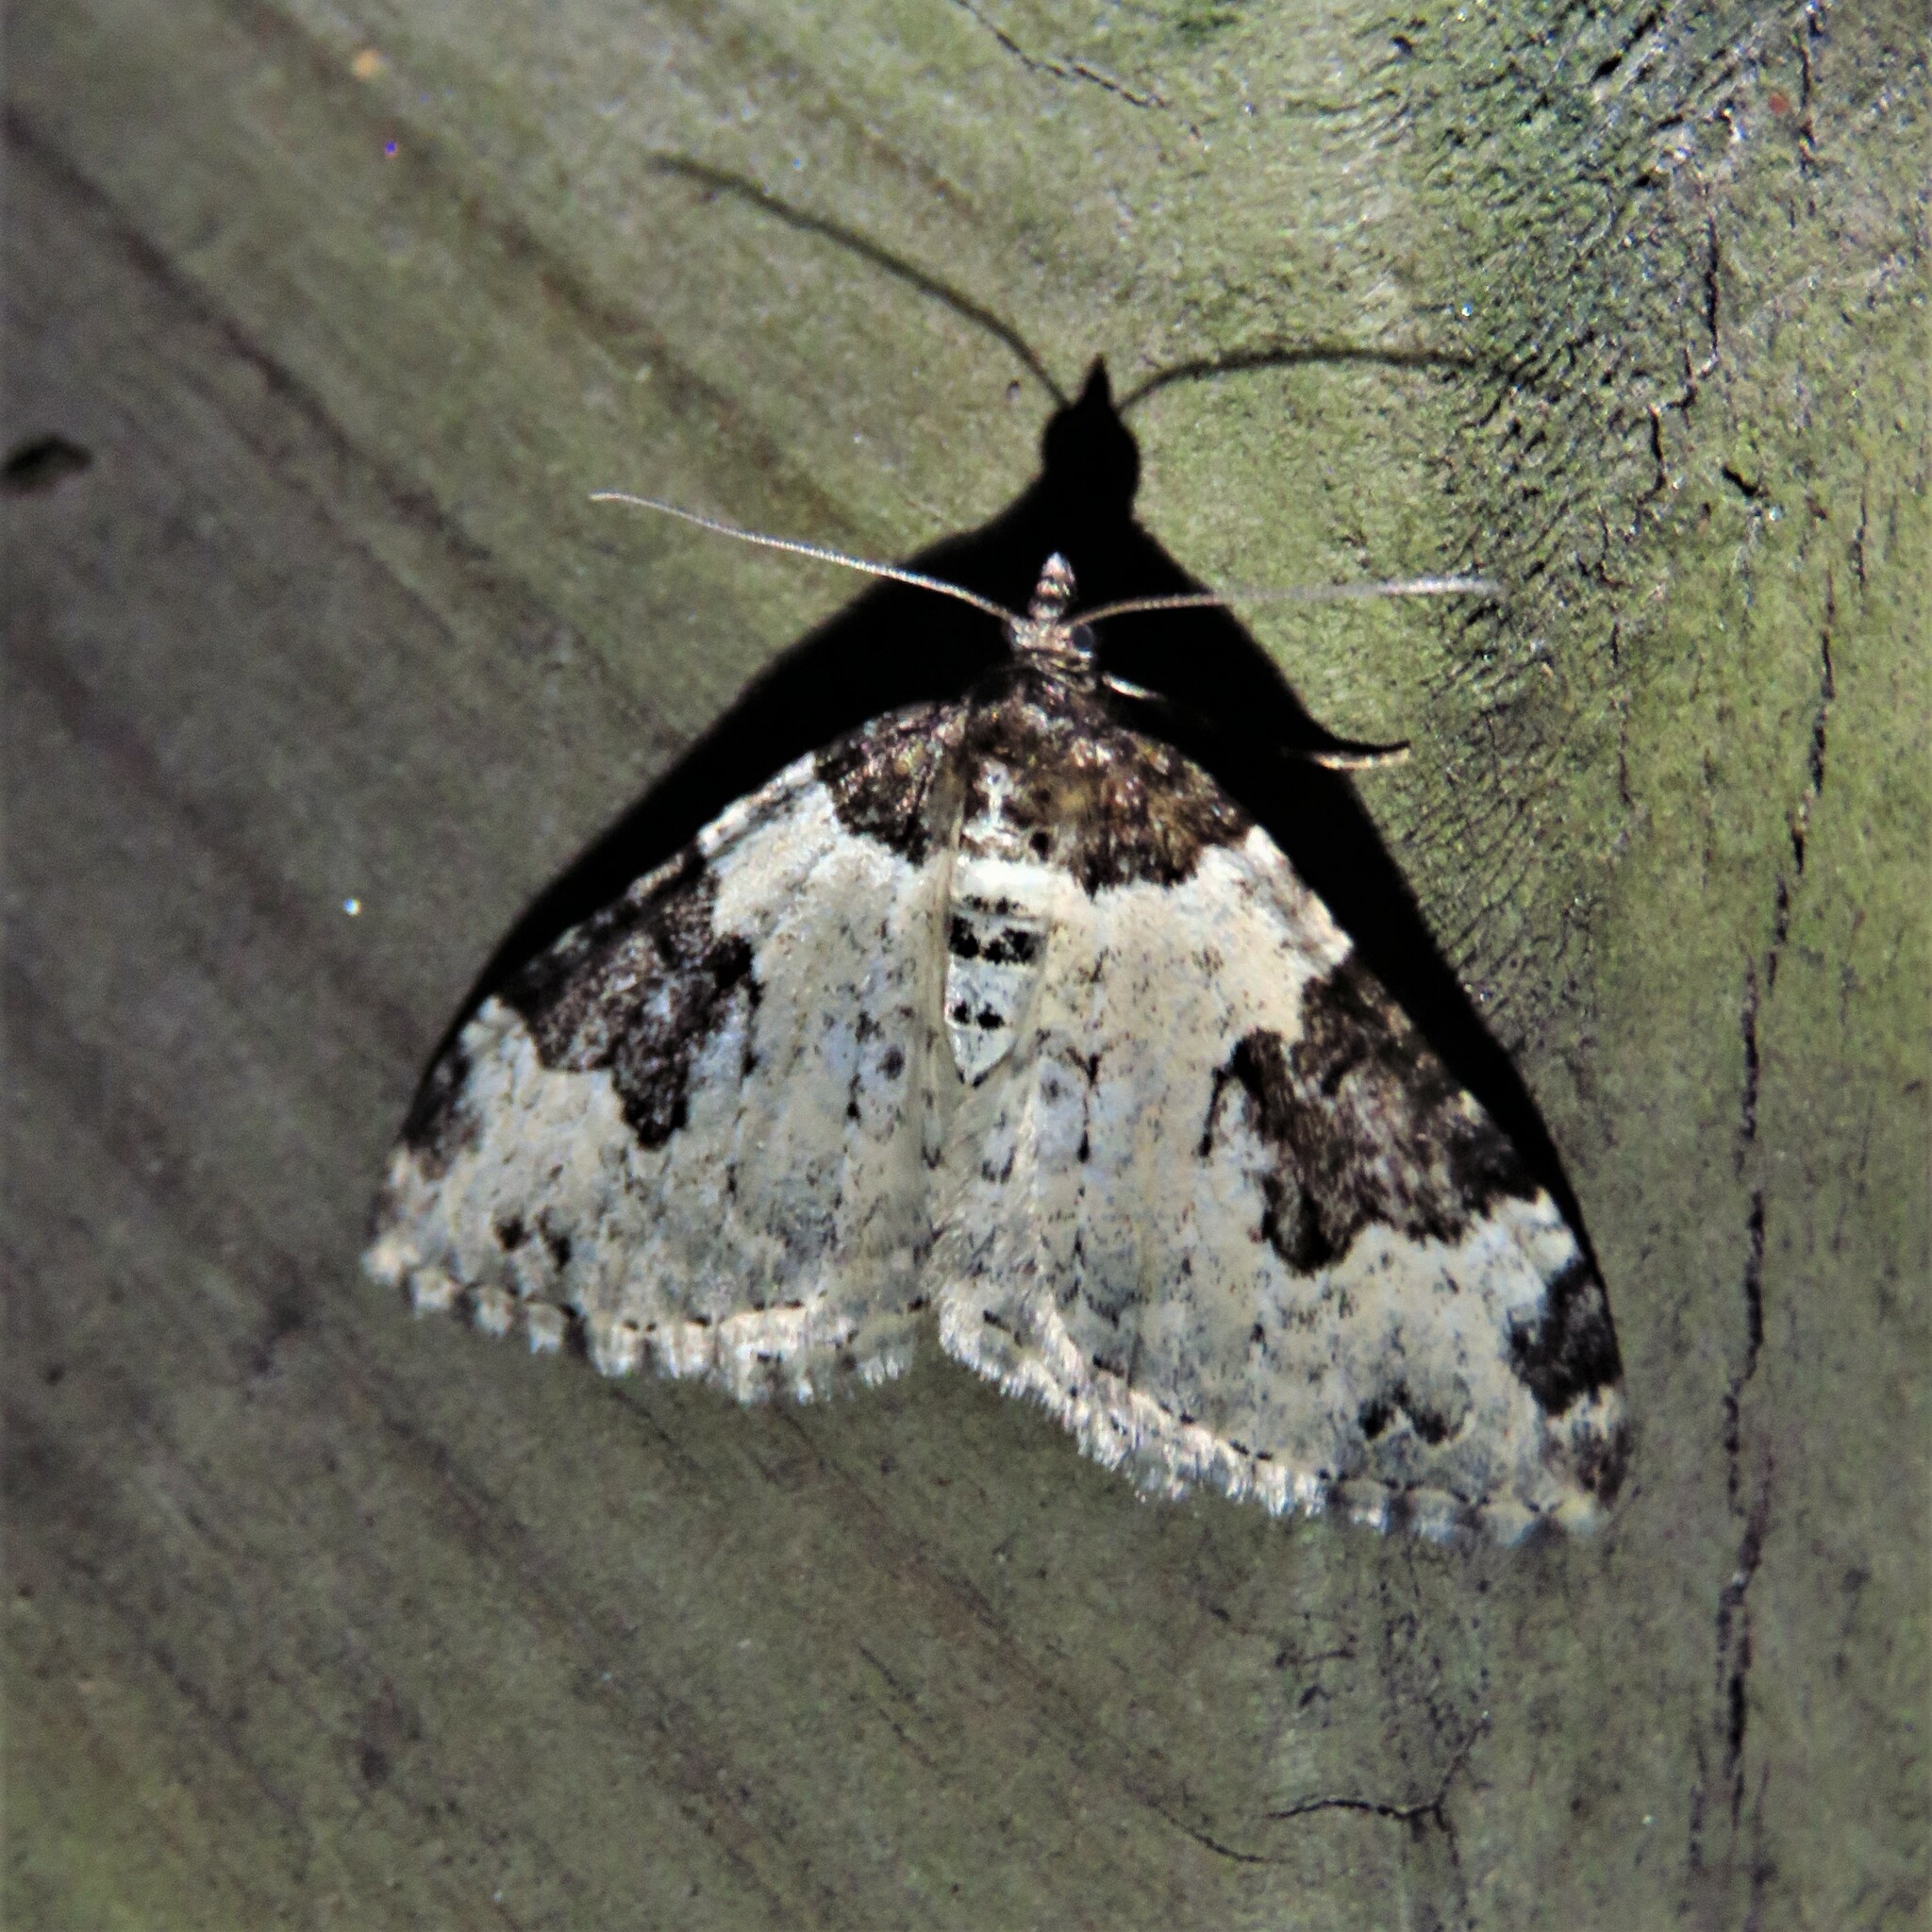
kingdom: Animalia
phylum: Arthropoda
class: Insecta
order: Lepidoptera
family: Geometridae
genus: Xanthorhoe
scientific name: Xanthorhoe fluctuata
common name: Garden carpet
